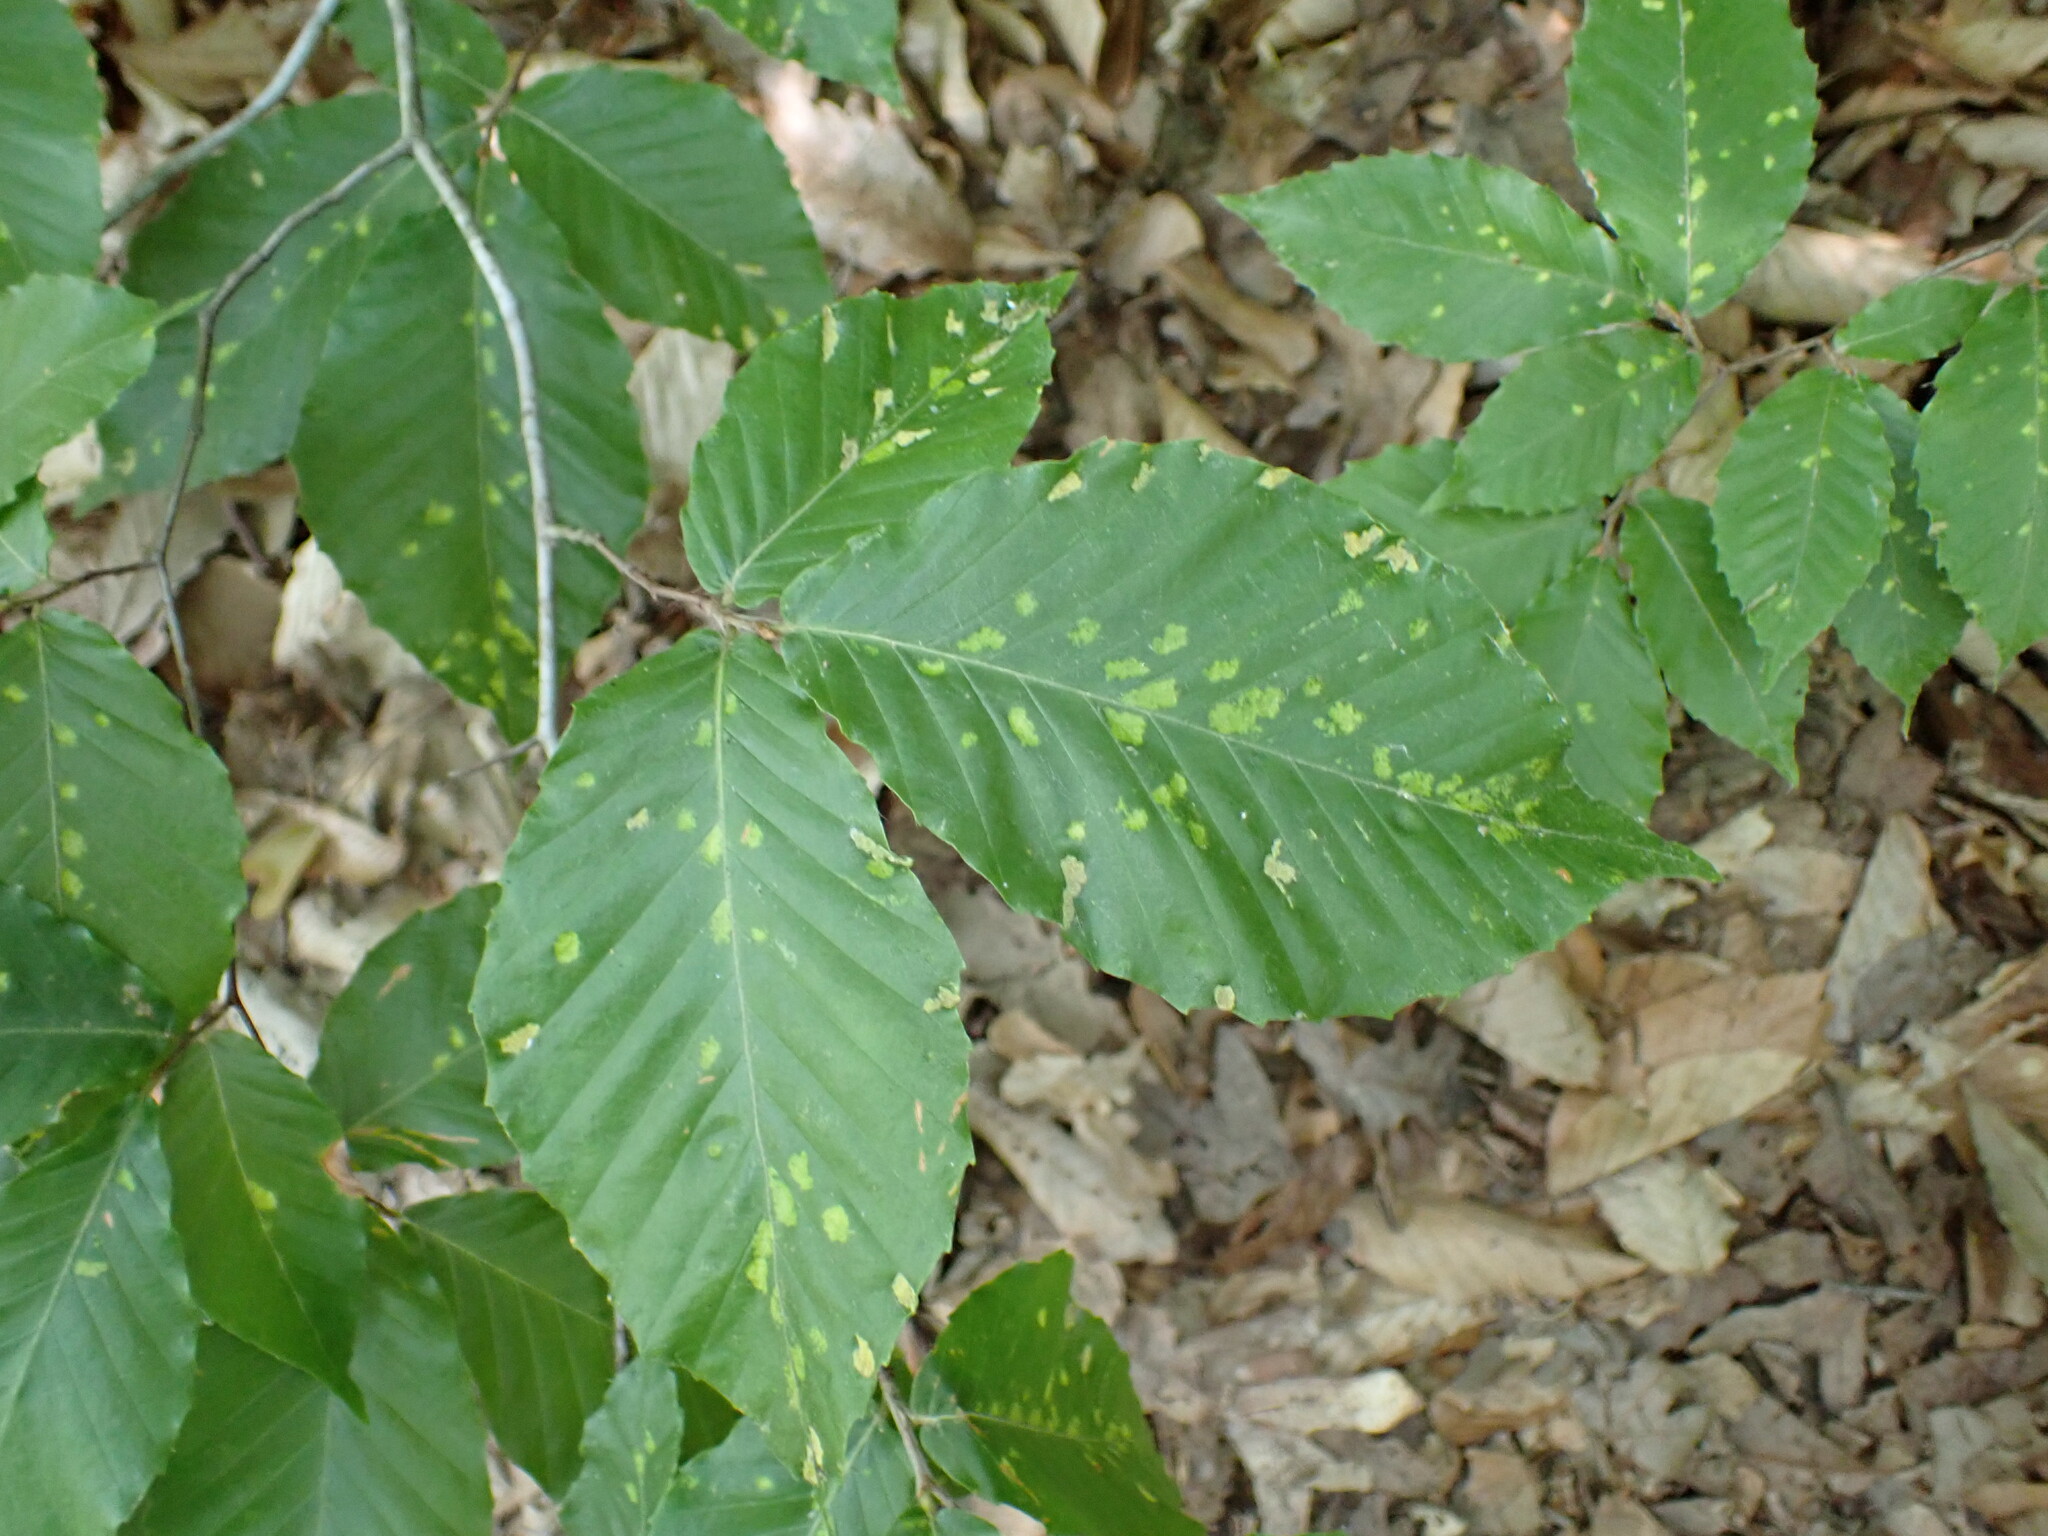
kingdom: Animalia
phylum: Arthropoda
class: Arachnida
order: Trombidiformes
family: Eriophyidae
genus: Acalitus
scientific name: Acalitus
